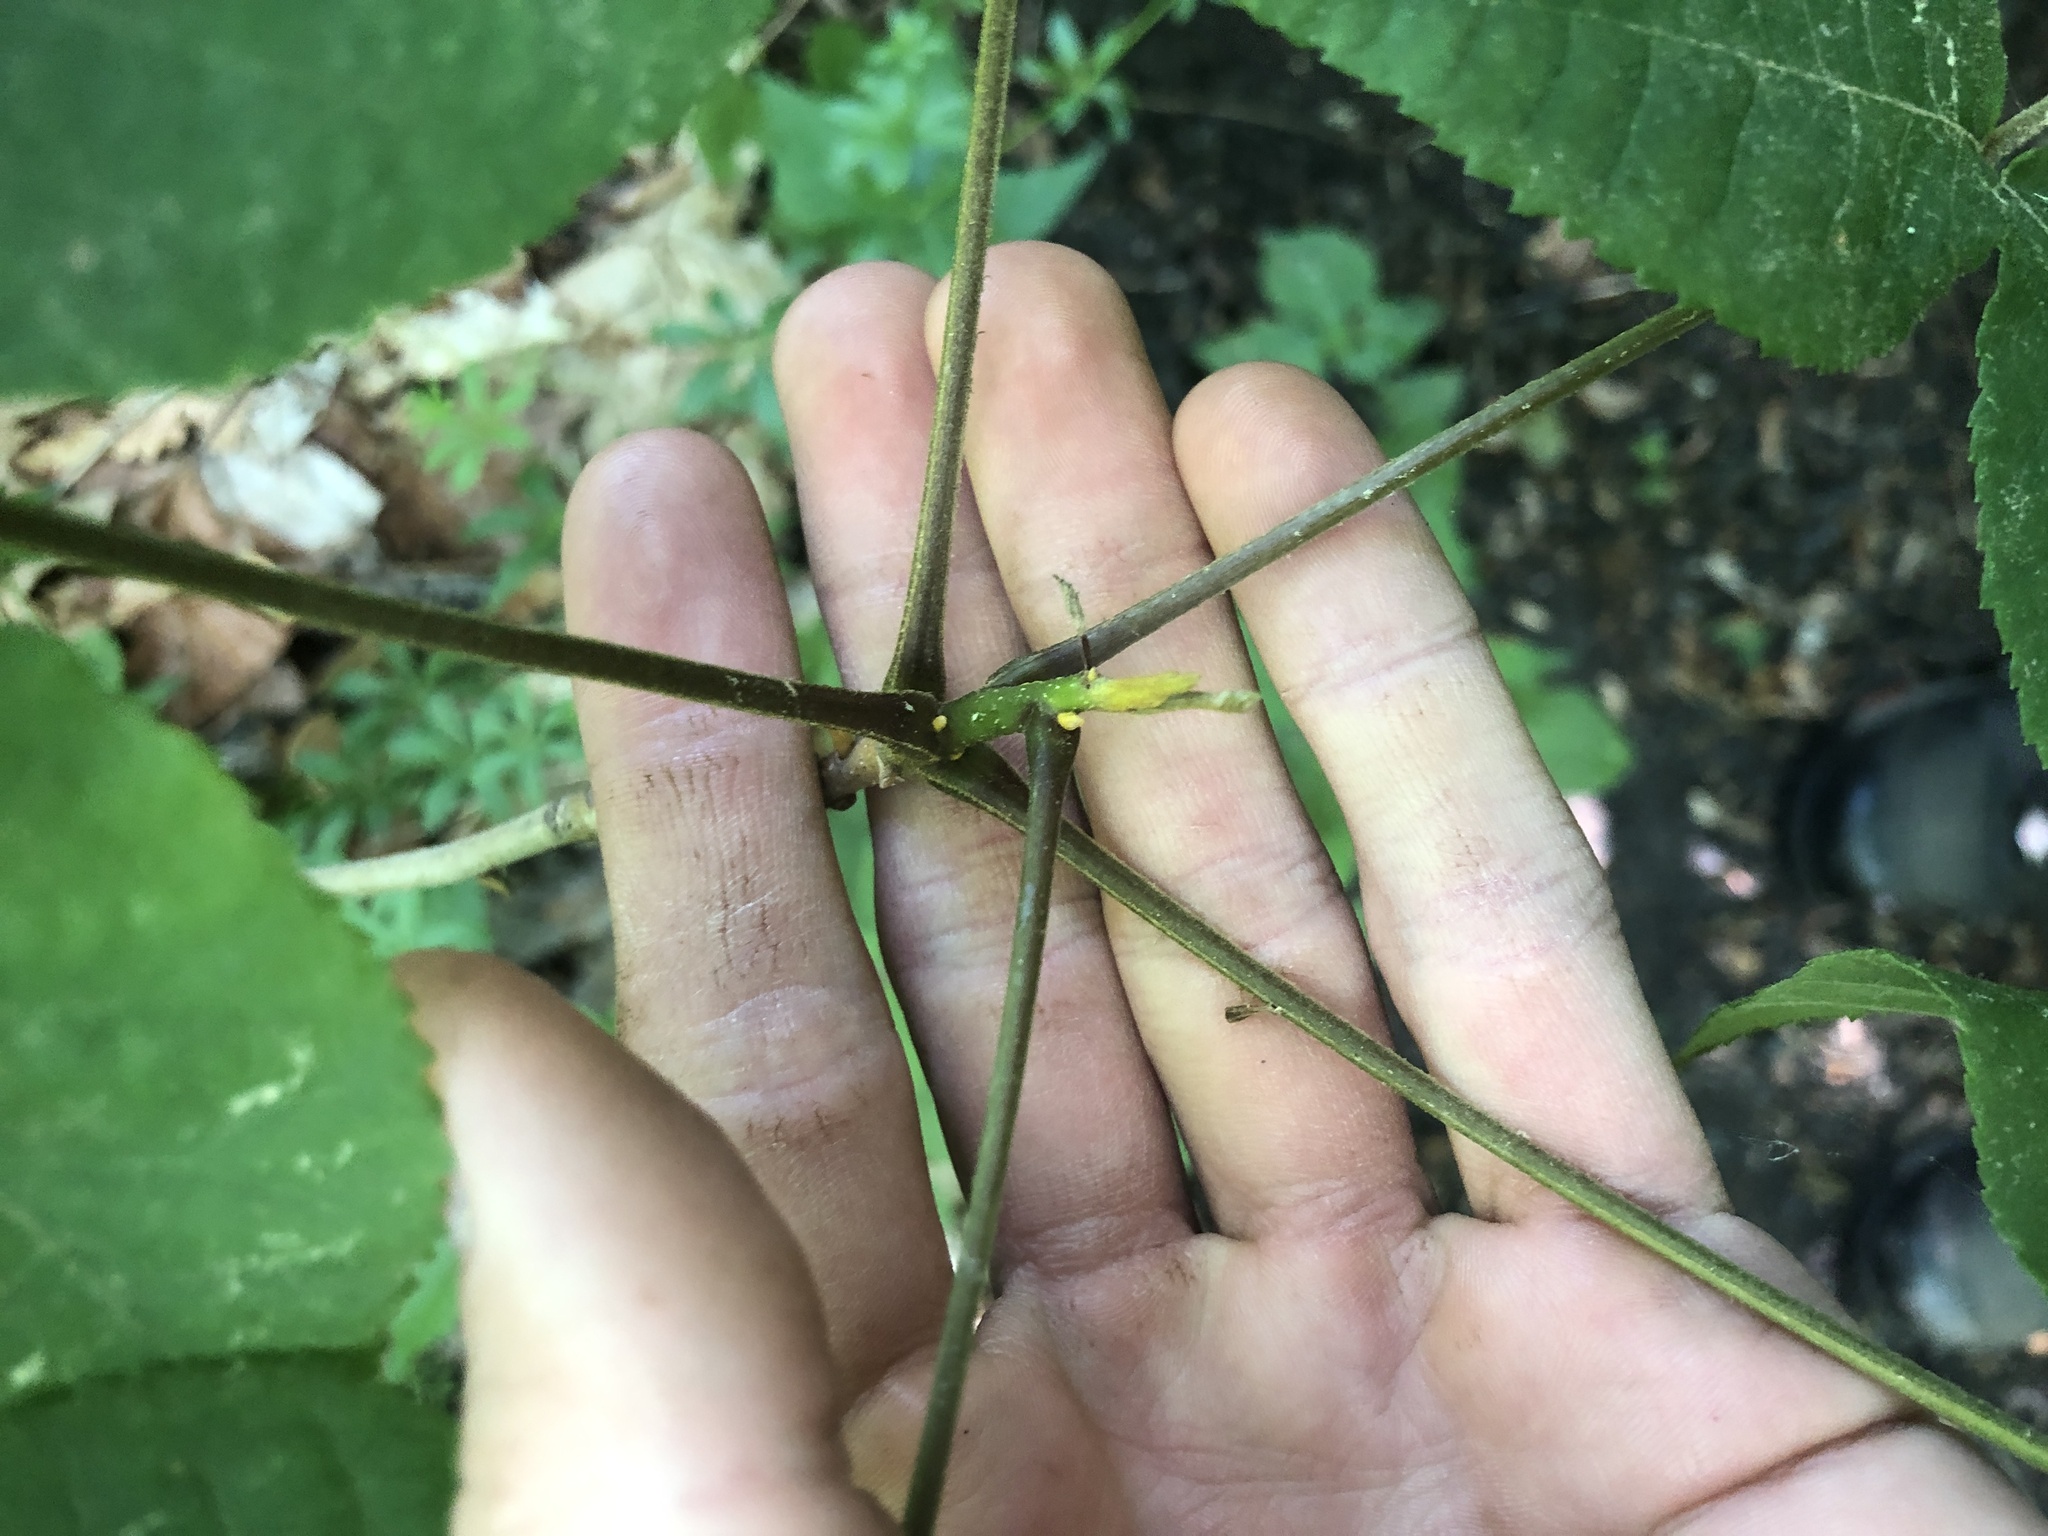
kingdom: Plantae
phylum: Tracheophyta
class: Magnoliopsida
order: Fagales
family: Juglandaceae
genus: Carya
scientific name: Carya cordiformis
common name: Bitternut hickory
